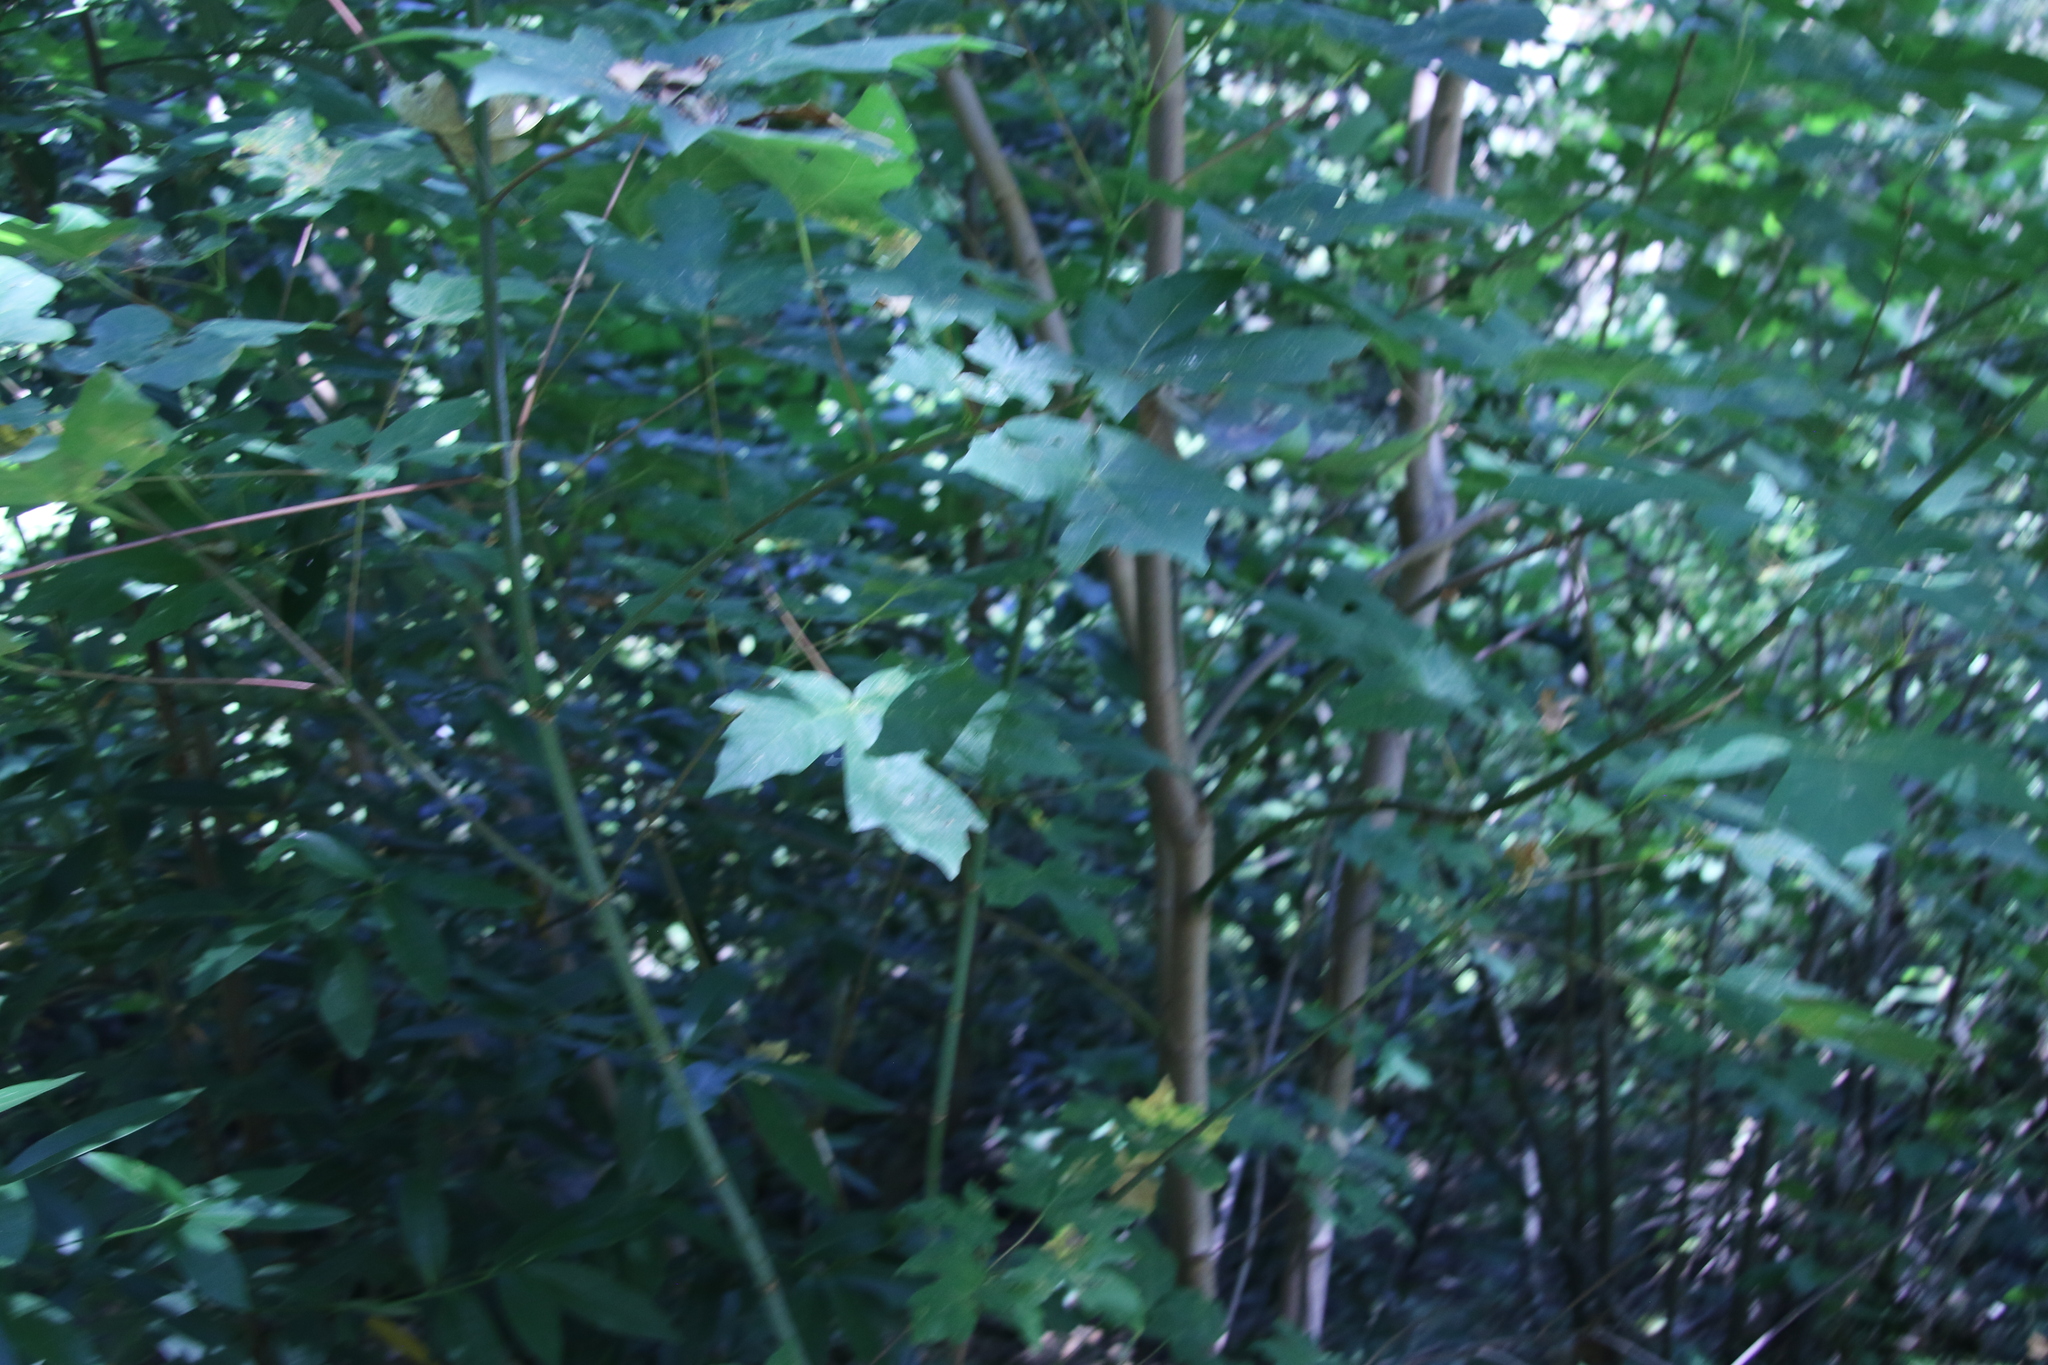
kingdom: Plantae
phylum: Tracheophyta
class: Magnoliopsida
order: Sapindales
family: Sapindaceae
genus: Acer
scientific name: Acer macrophyllum
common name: Oregon maple
